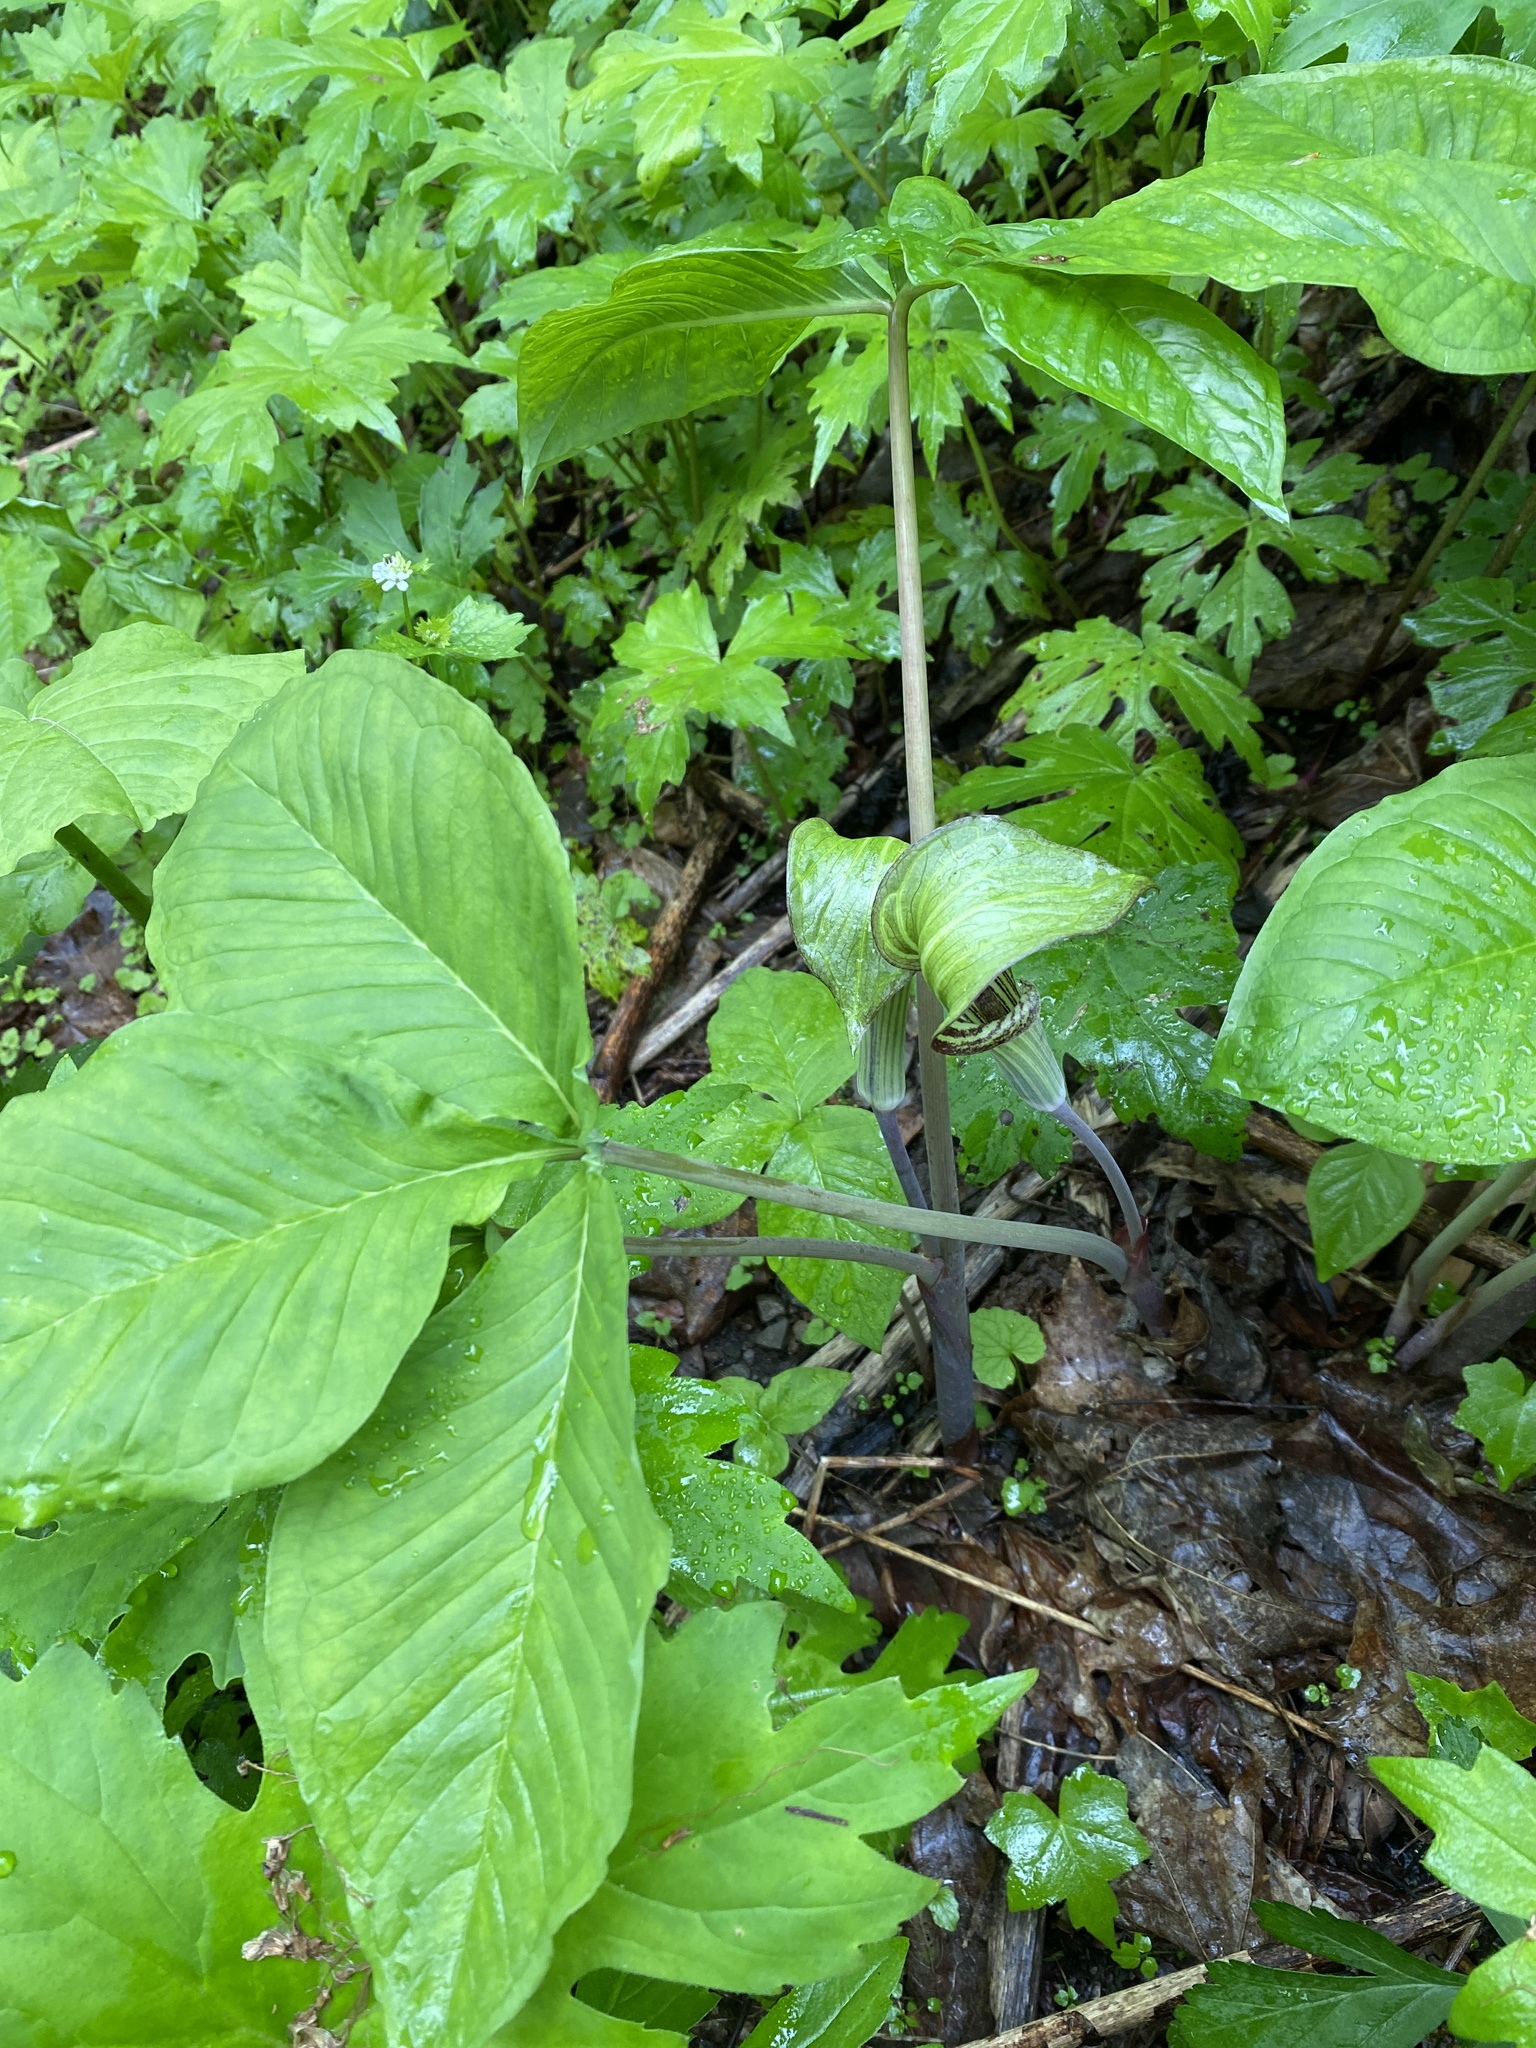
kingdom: Plantae
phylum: Tracheophyta
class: Liliopsida
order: Alismatales
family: Araceae
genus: Arisaema
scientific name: Arisaema triphyllum
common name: Jack-in-the-pulpit
